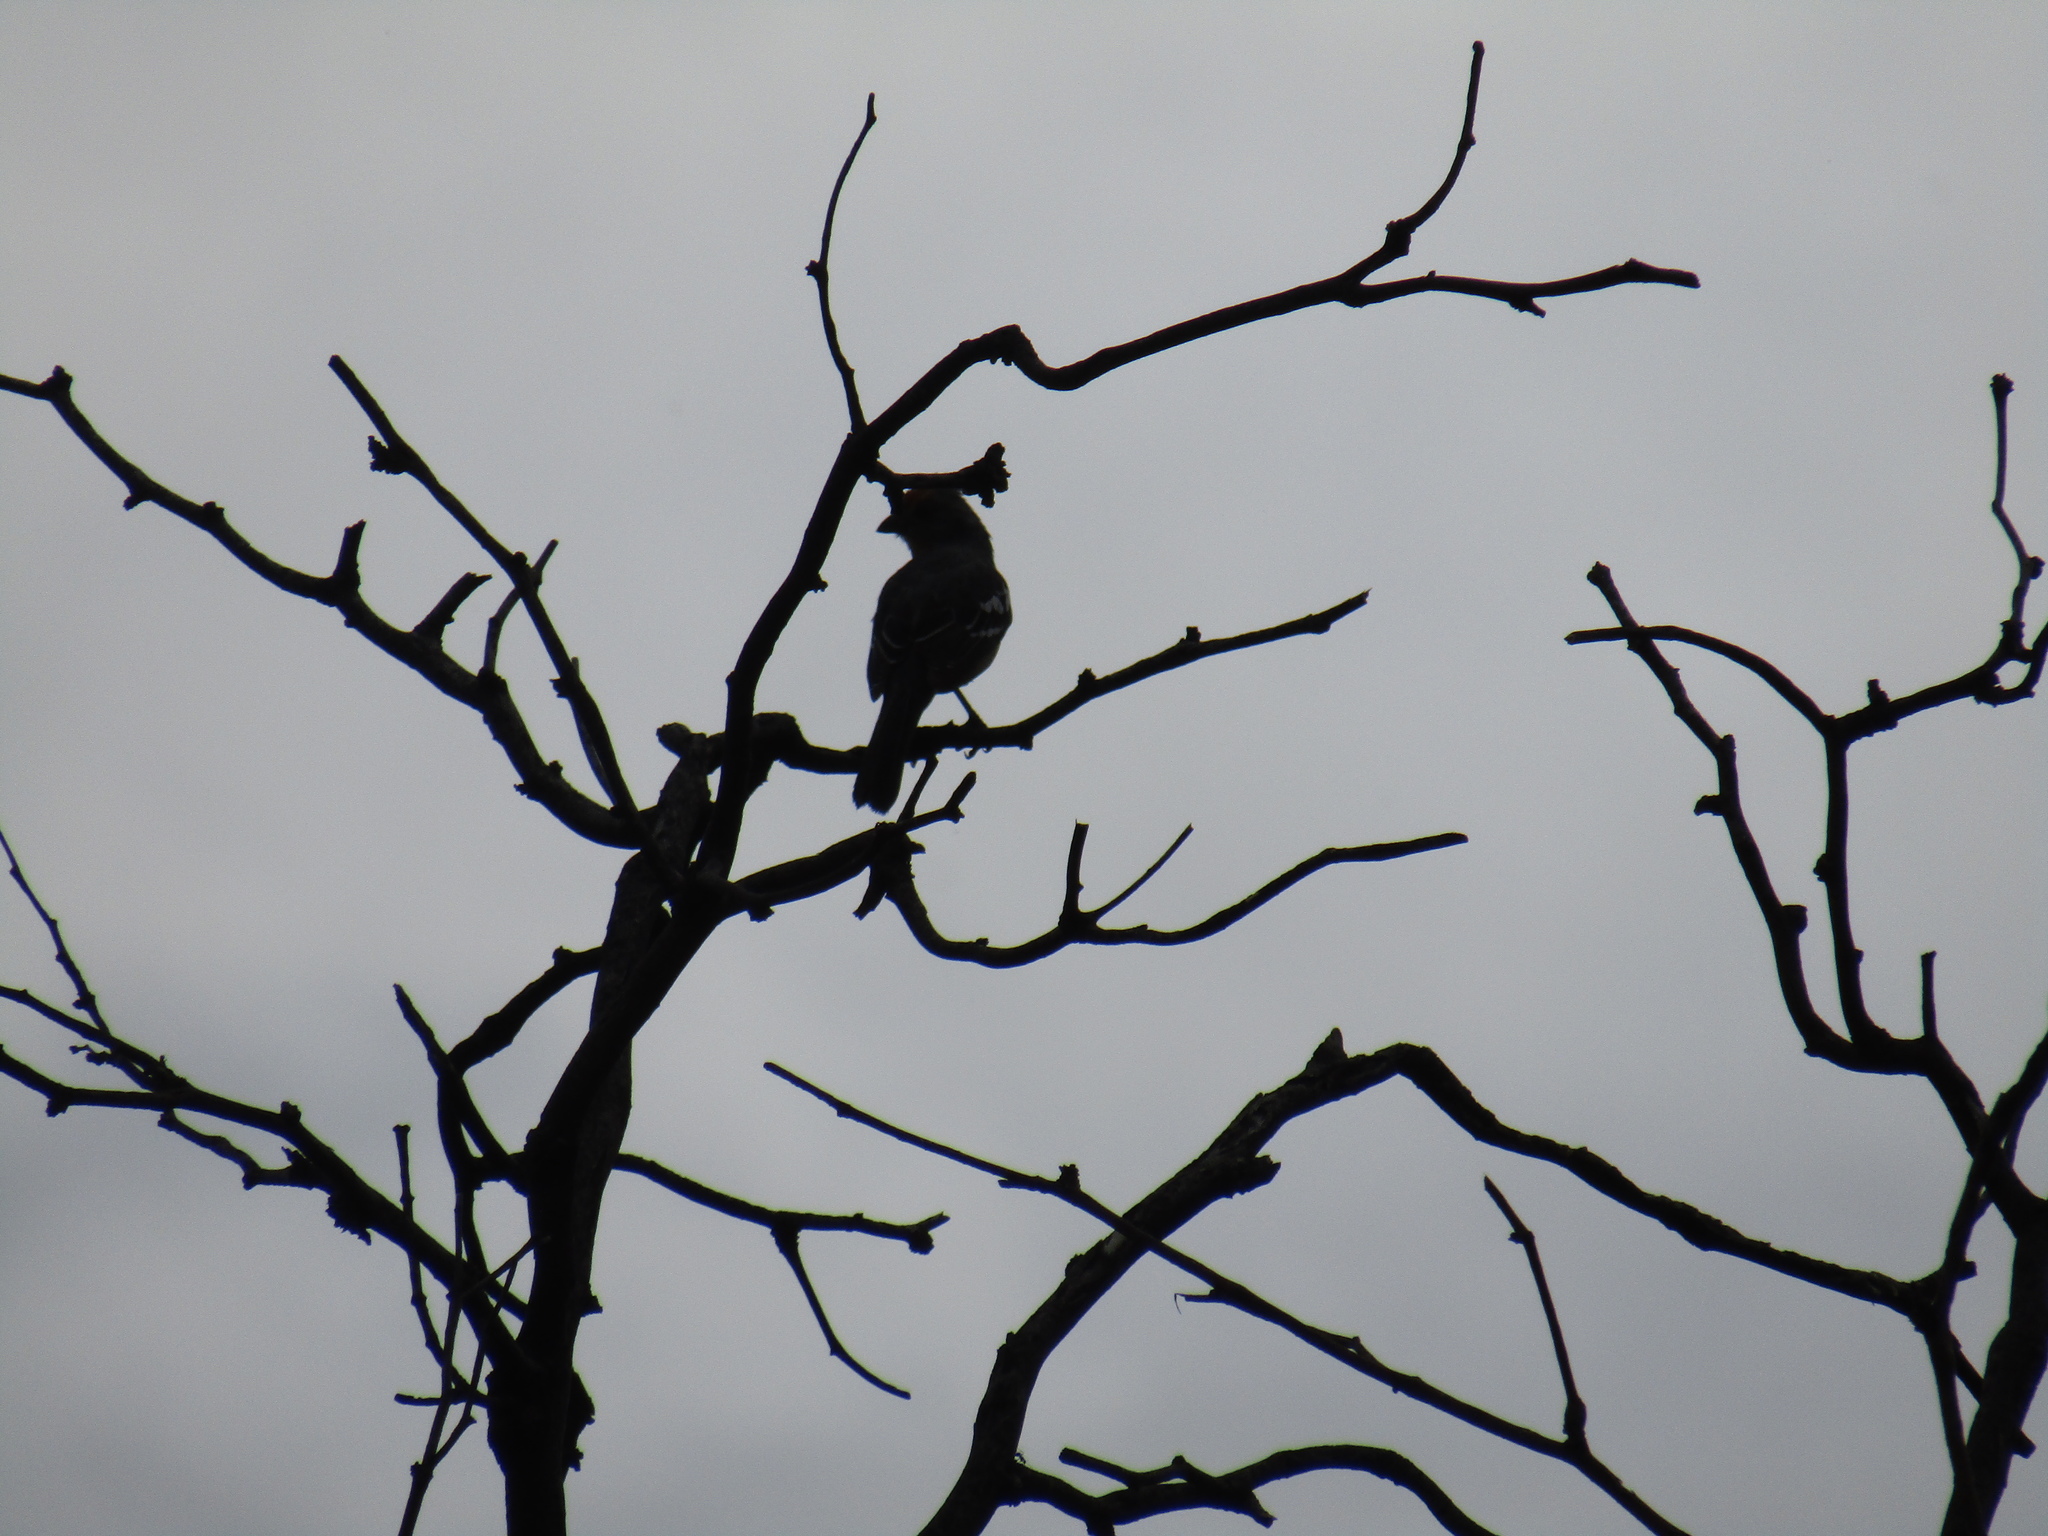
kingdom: Animalia
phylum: Chordata
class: Aves
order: Passeriformes
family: Cotingidae
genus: Phytotoma
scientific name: Phytotoma rutila
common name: White-tipped plantcutter
